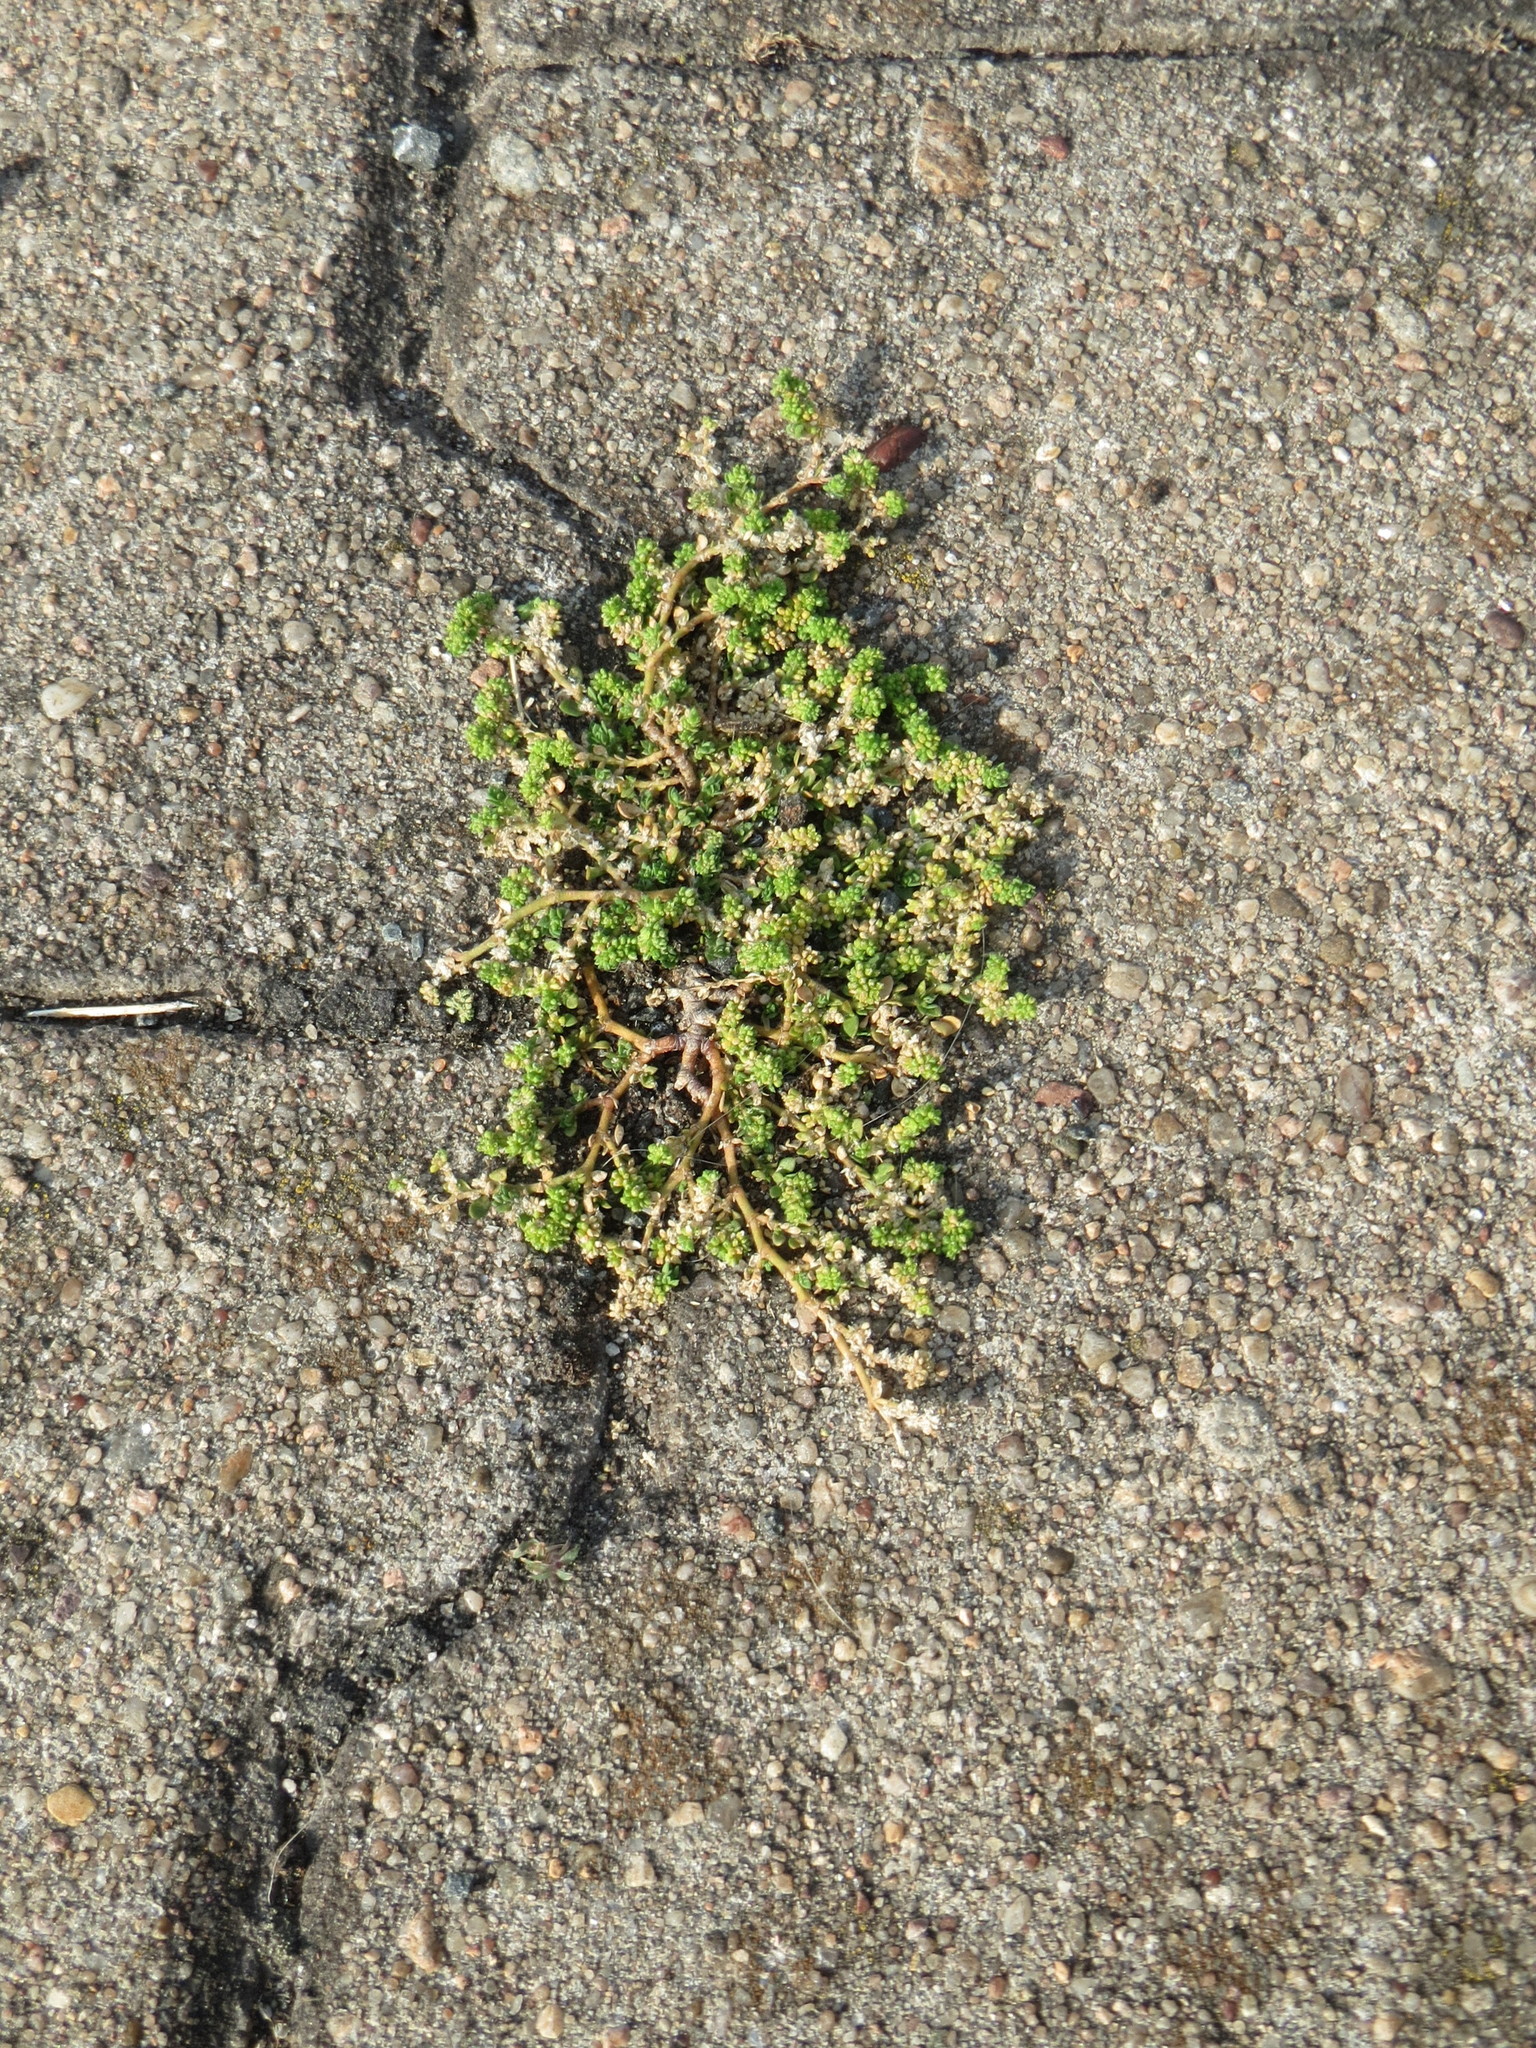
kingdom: Plantae
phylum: Tracheophyta
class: Magnoliopsida
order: Caryophyllales
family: Caryophyllaceae
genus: Herniaria
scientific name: Herniaria glabra
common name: Smooth rupturewort
